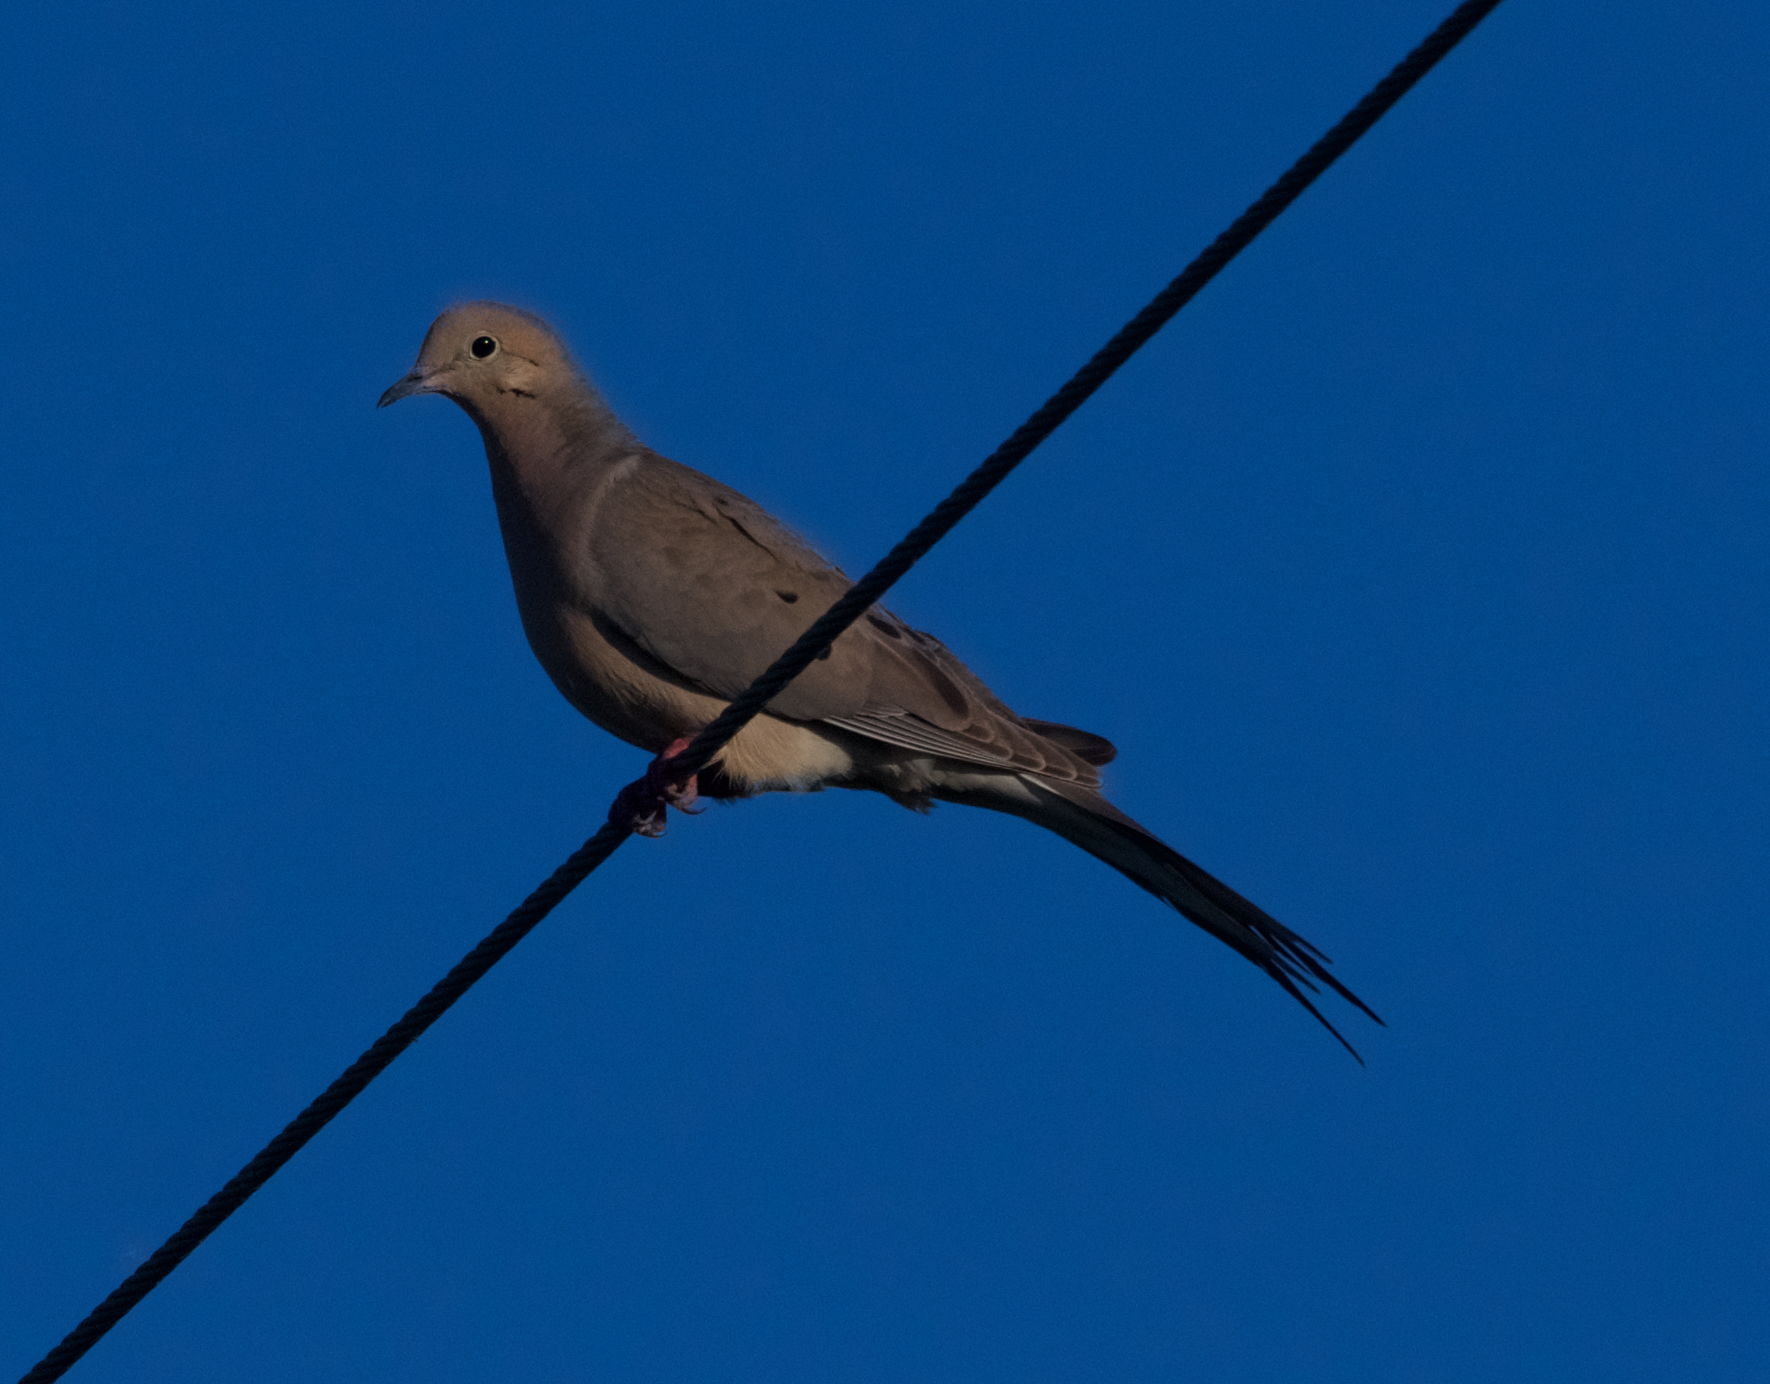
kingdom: Animalia
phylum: Chordata
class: Aves
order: Columbiformes
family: Columbidae
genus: Zenaida
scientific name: Zenaida macroura
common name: Mourning dove
